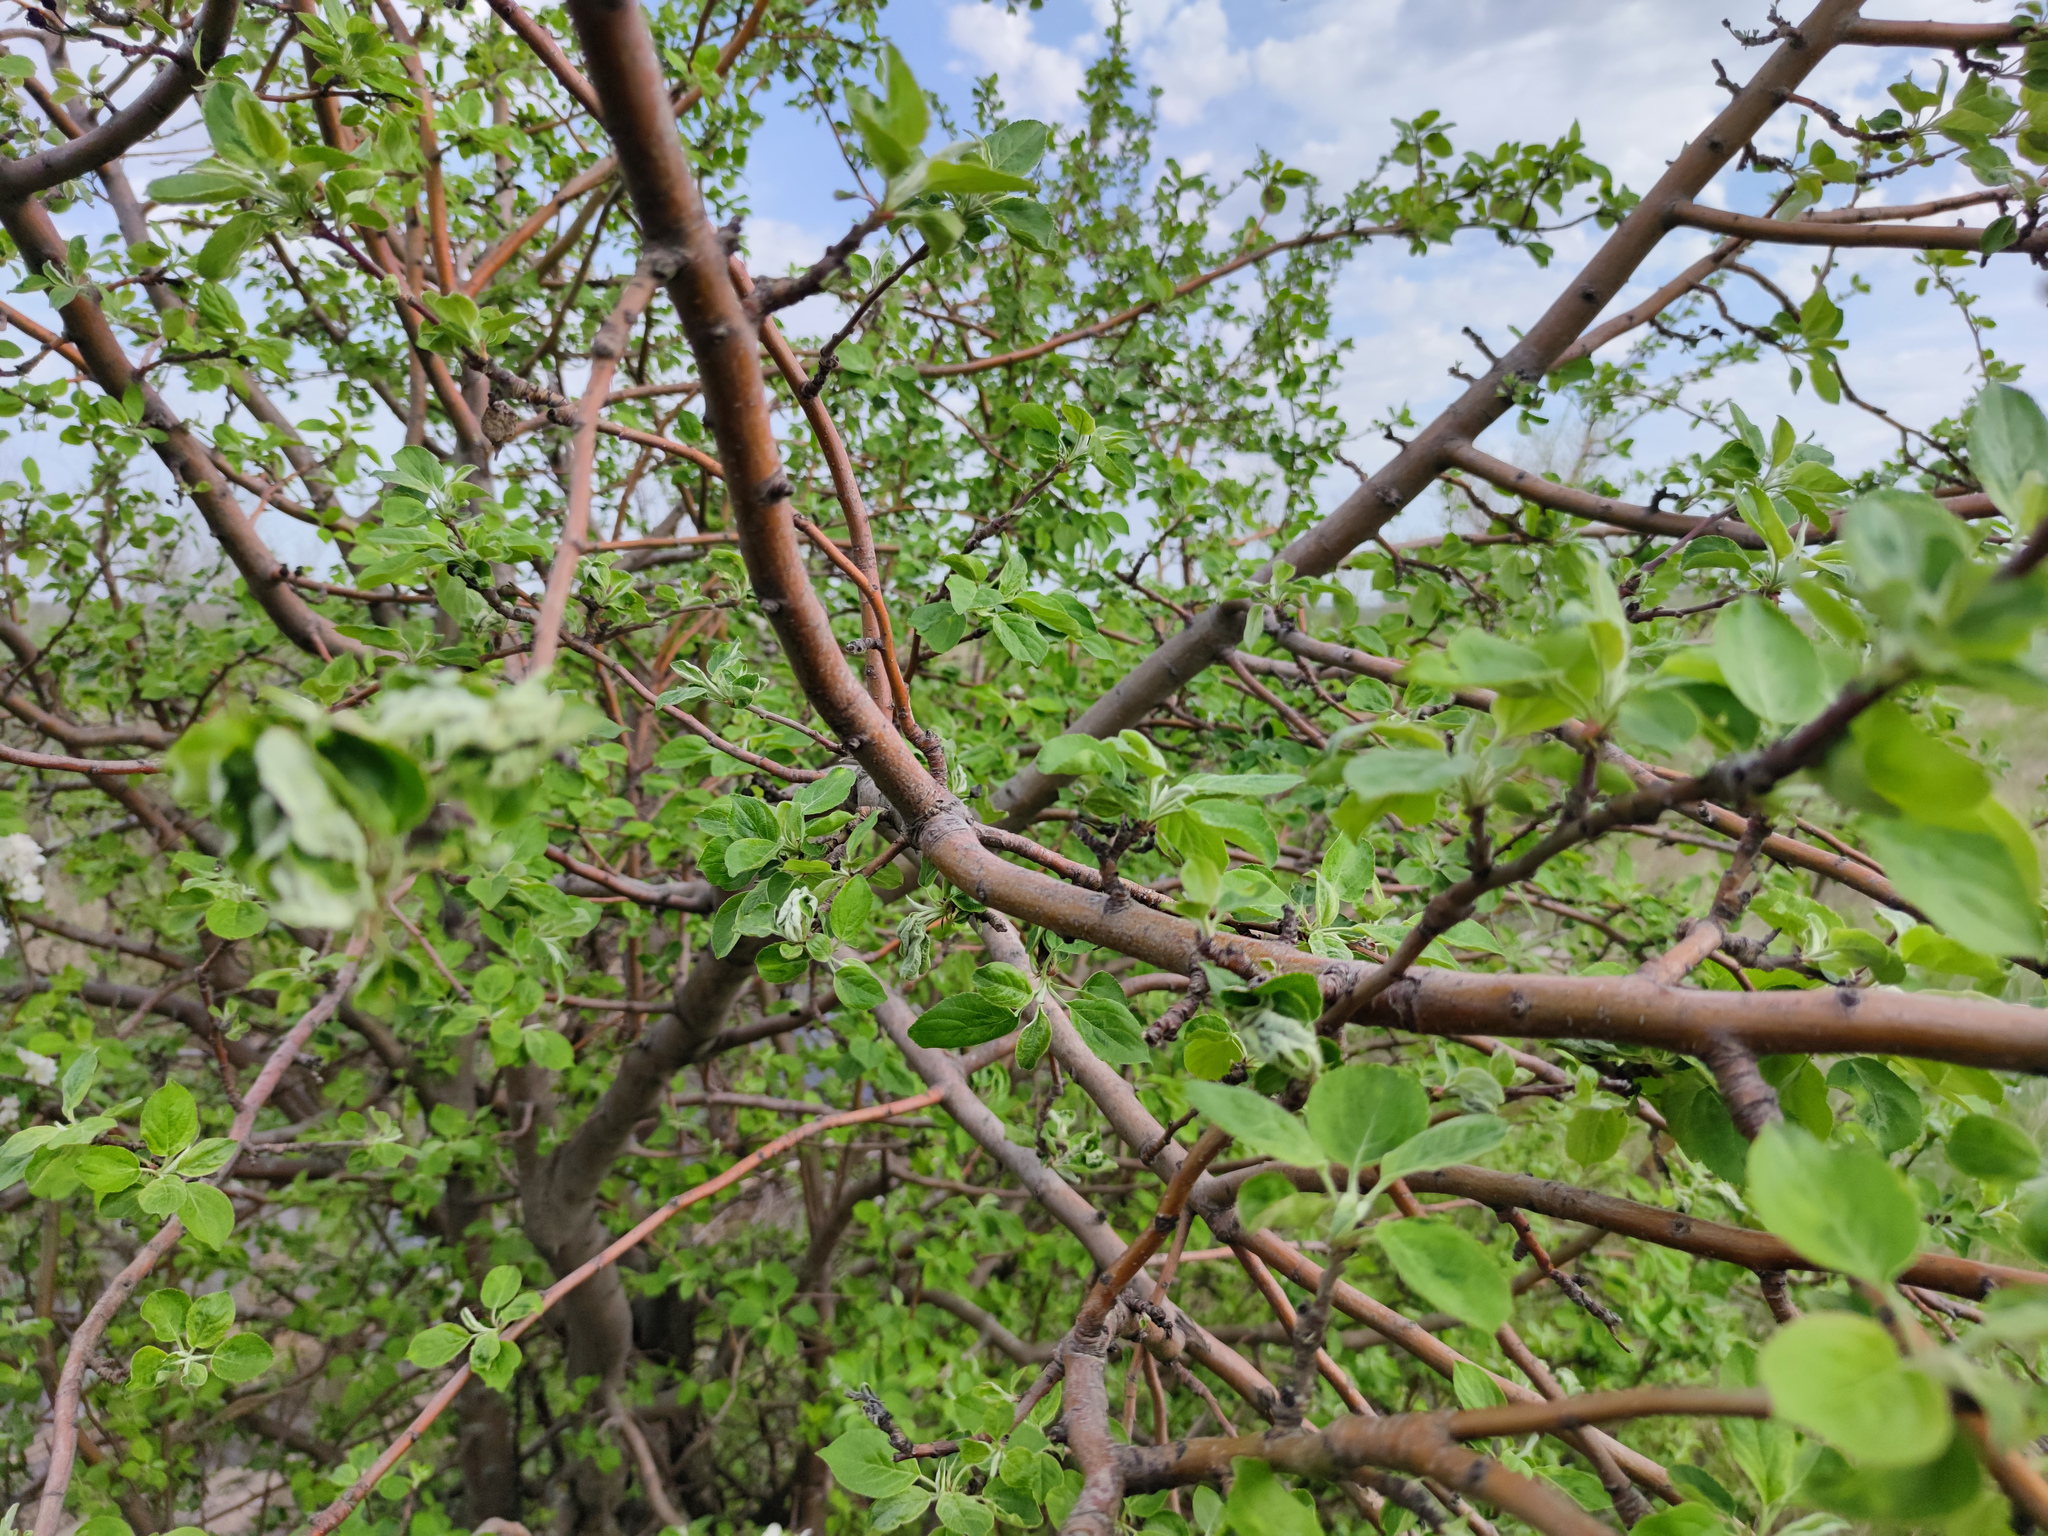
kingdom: Plantae
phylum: Tracheophyta
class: Magnoliopsida
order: Rosales
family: Rosaceae
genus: Malus
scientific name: Malus domestica
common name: Apple
